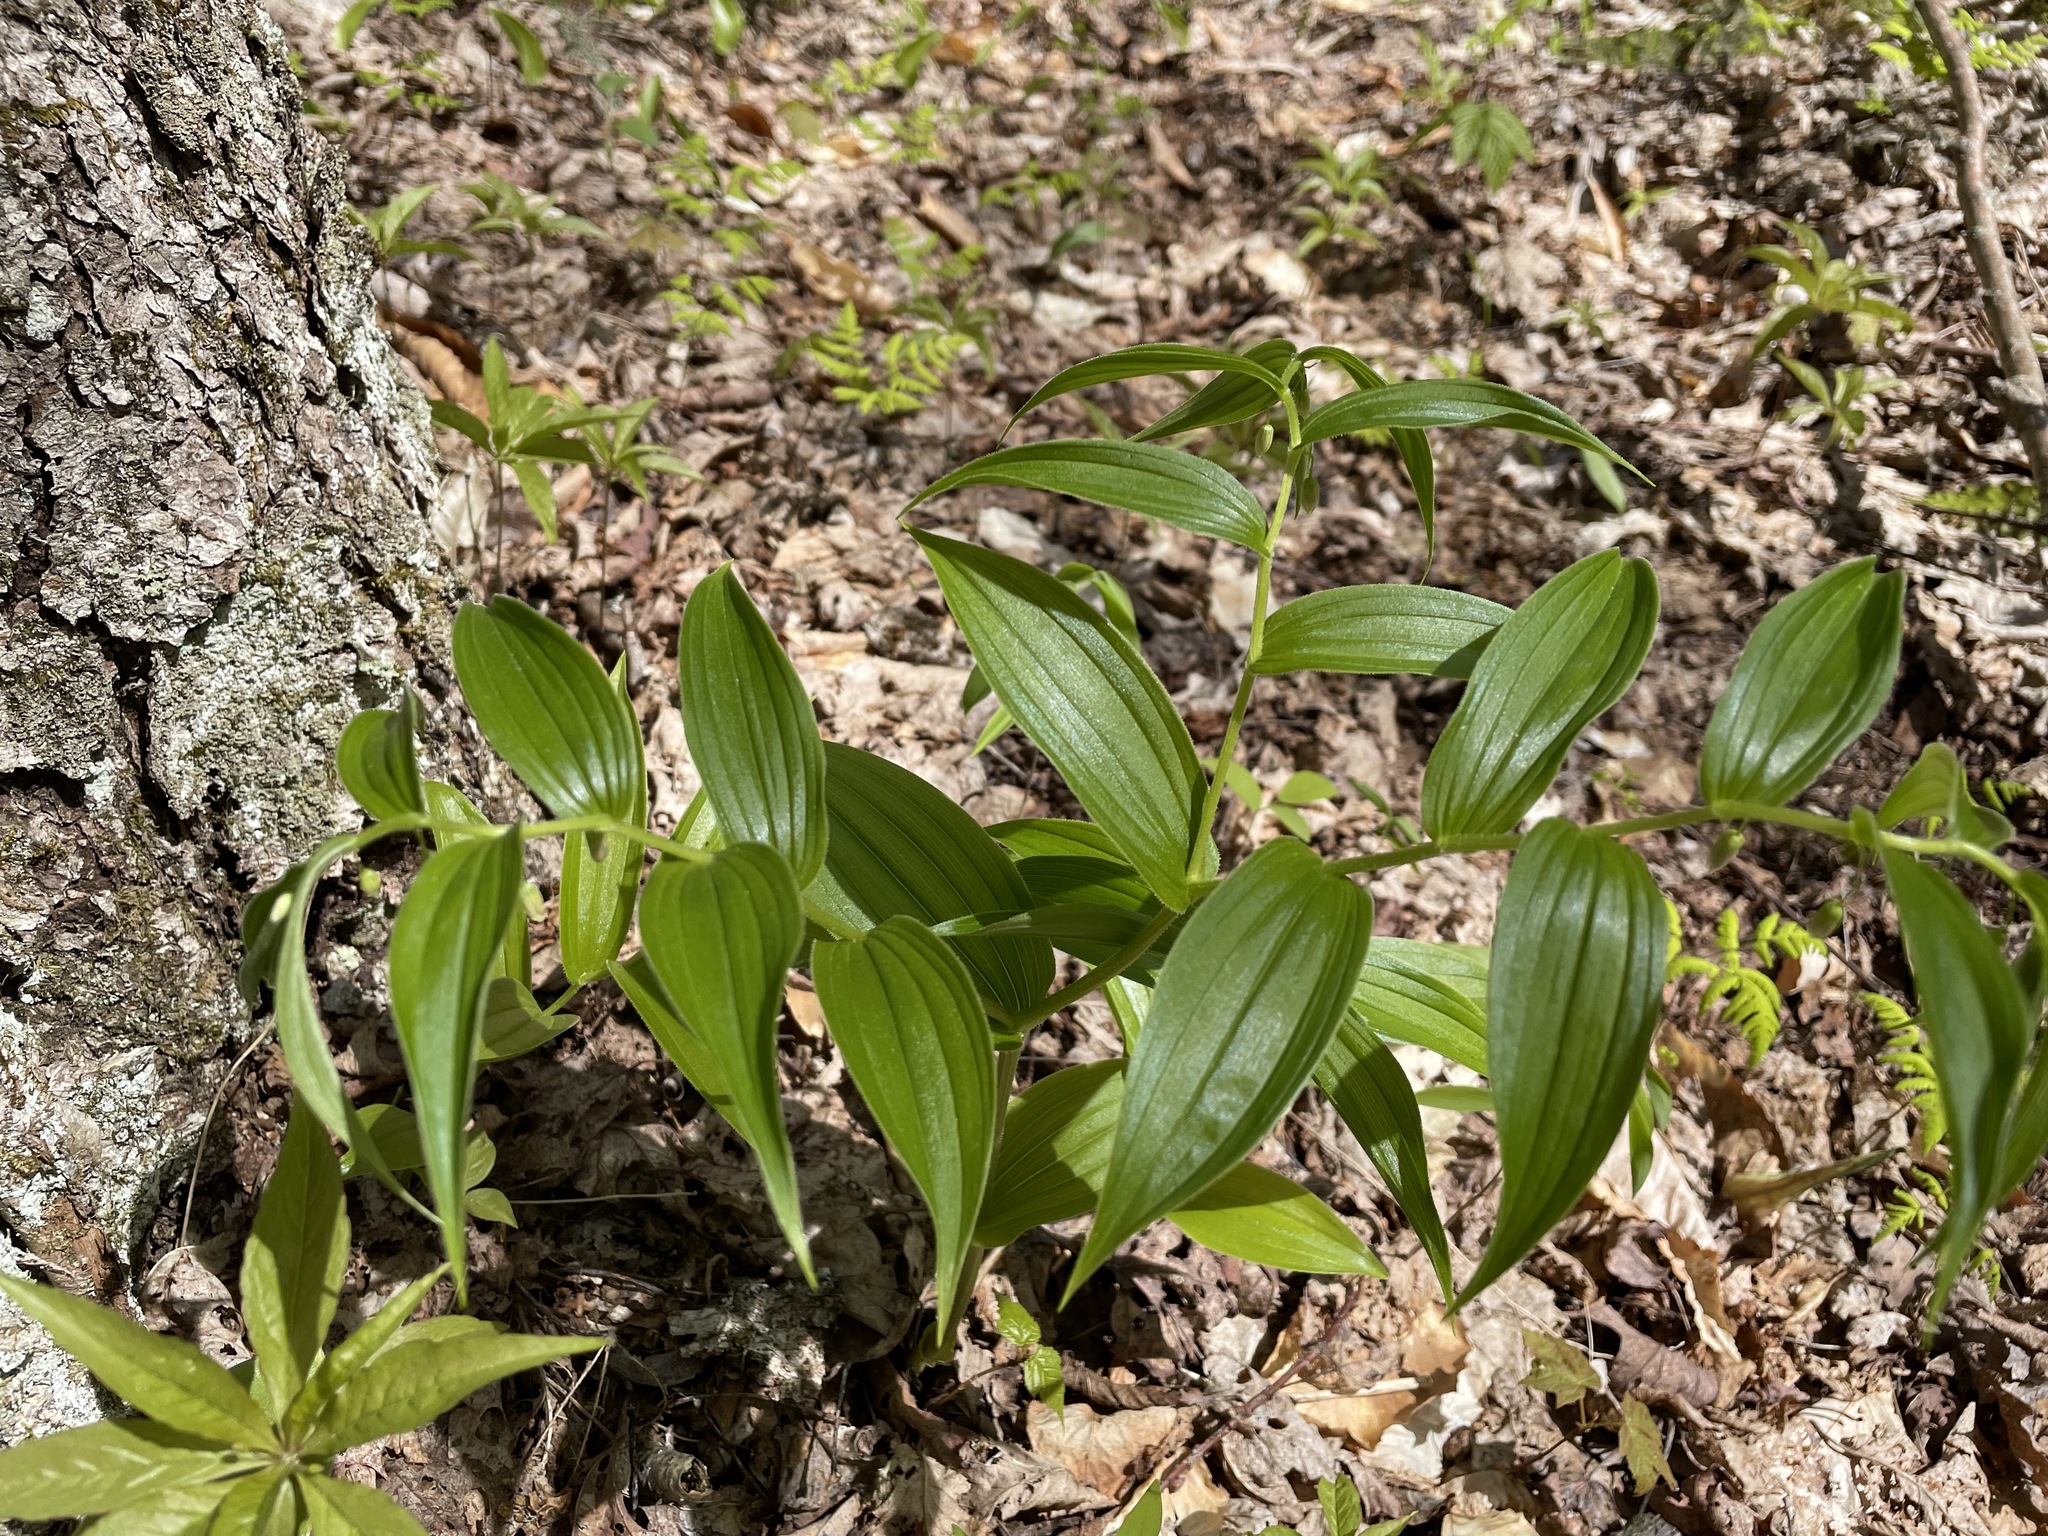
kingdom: Plantae
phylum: Tracheophyta
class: Liliopsida
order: Liliales
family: Liliaceae
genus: Streptopus
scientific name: Streptopus lanceolatus
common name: Rose mandarin
